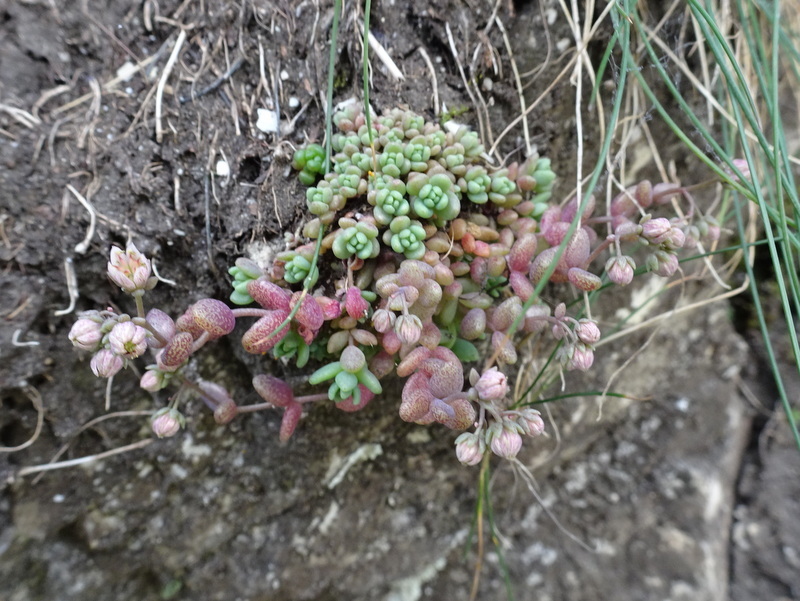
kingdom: Plantae
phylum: Tracheophyta
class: Magnoliopsida
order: Saxifragales
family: Crassulaceae
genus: Sedum
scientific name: Sedum dasyphyllum
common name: Thick-leaf stonecrop
